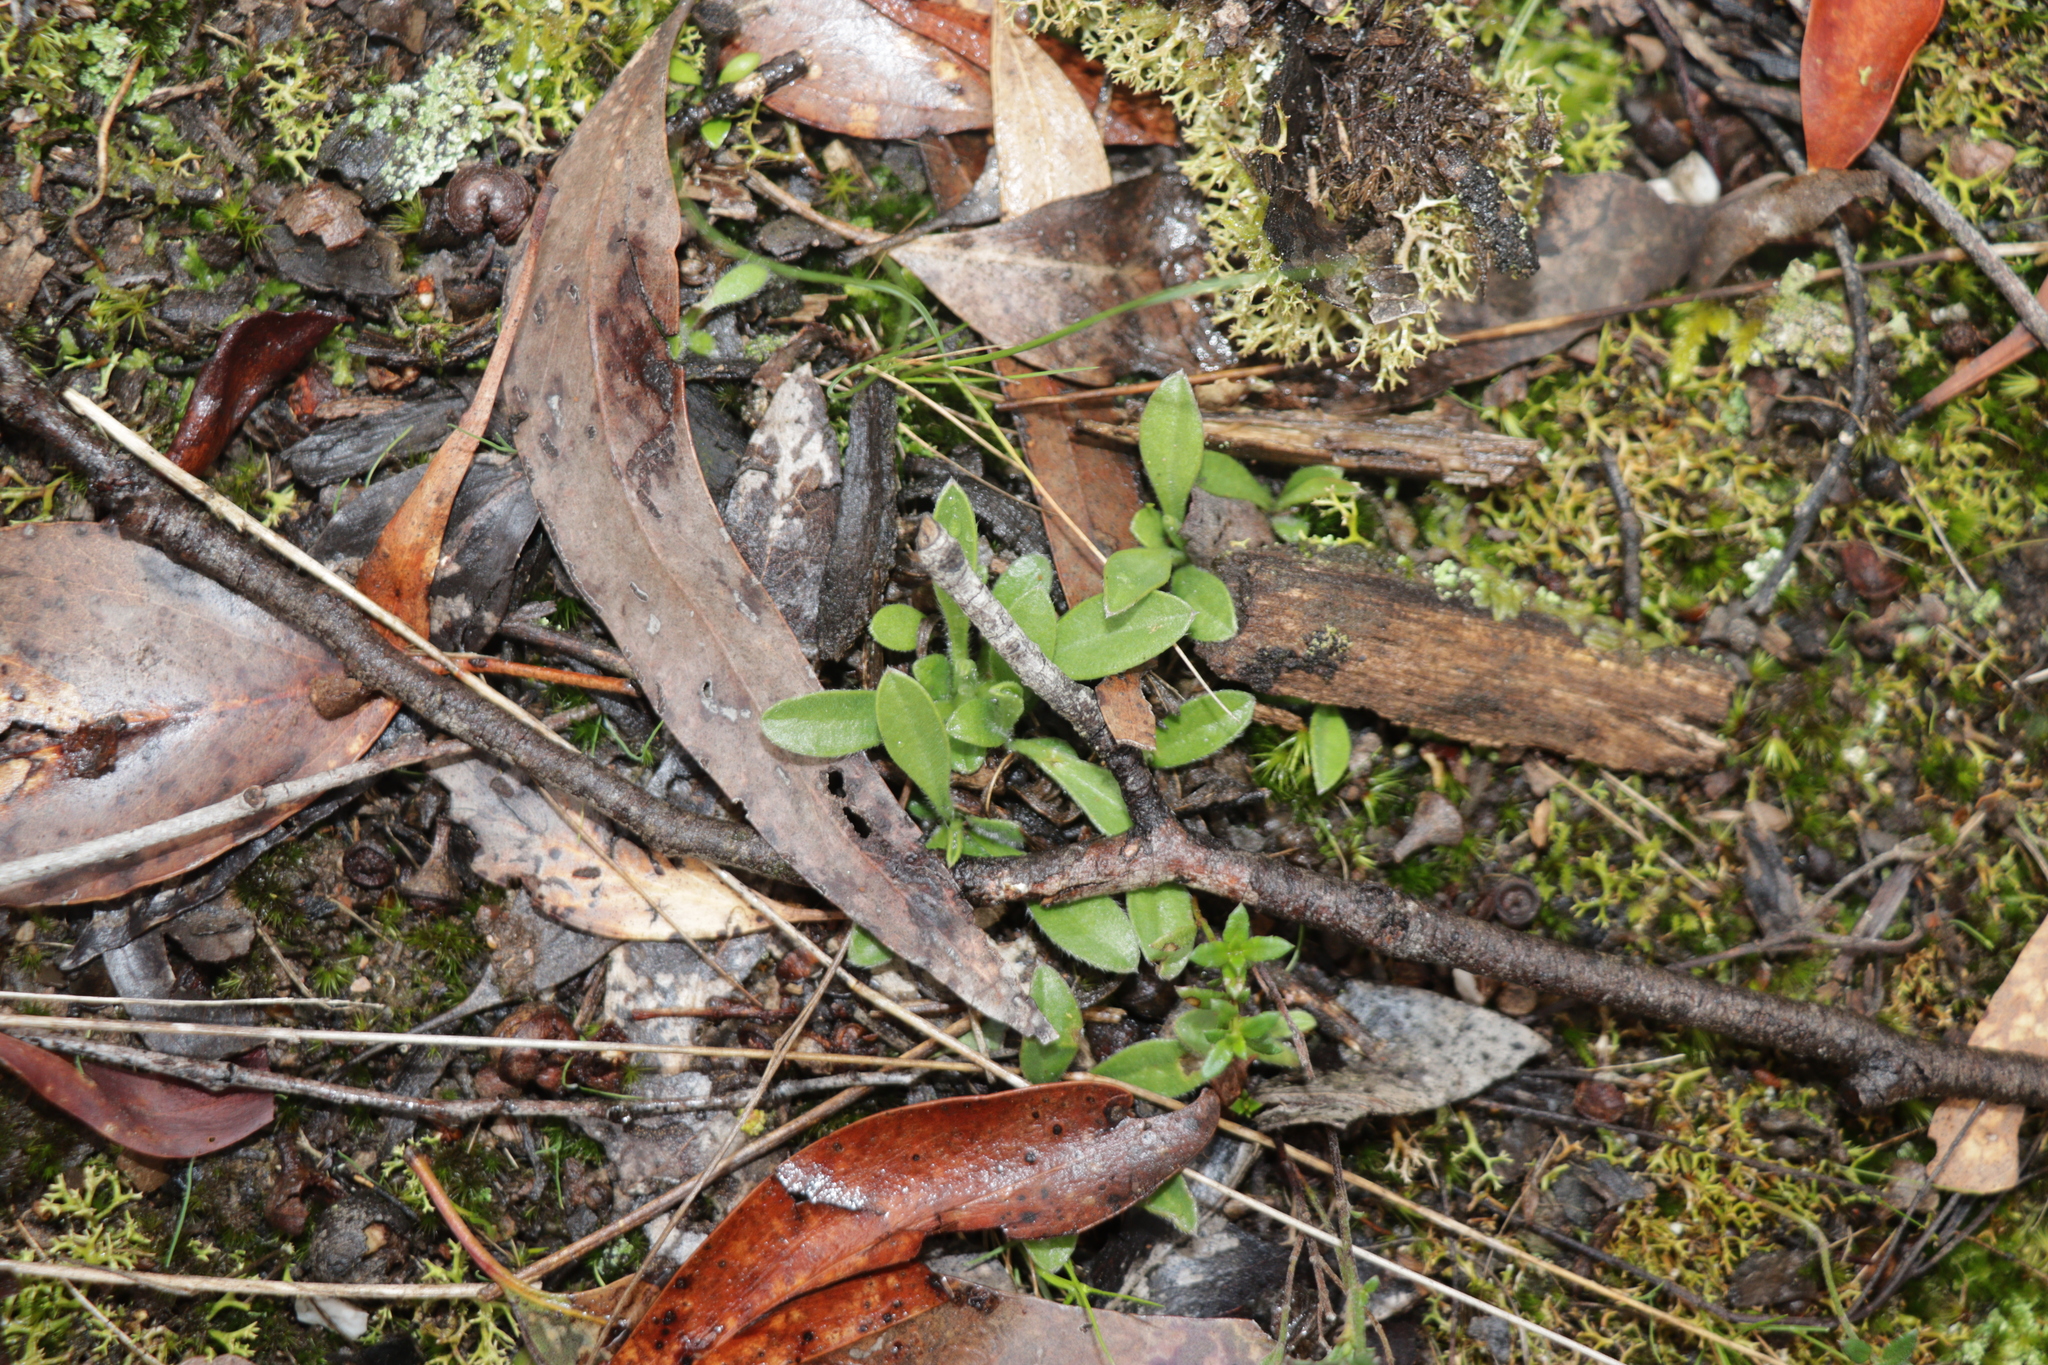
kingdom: Plantae
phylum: Tracheophyta
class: Magnoliopsida
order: Asterales
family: Goodeniaceae
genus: Brunonia
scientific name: Brunonia australis
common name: Blue pincushion
